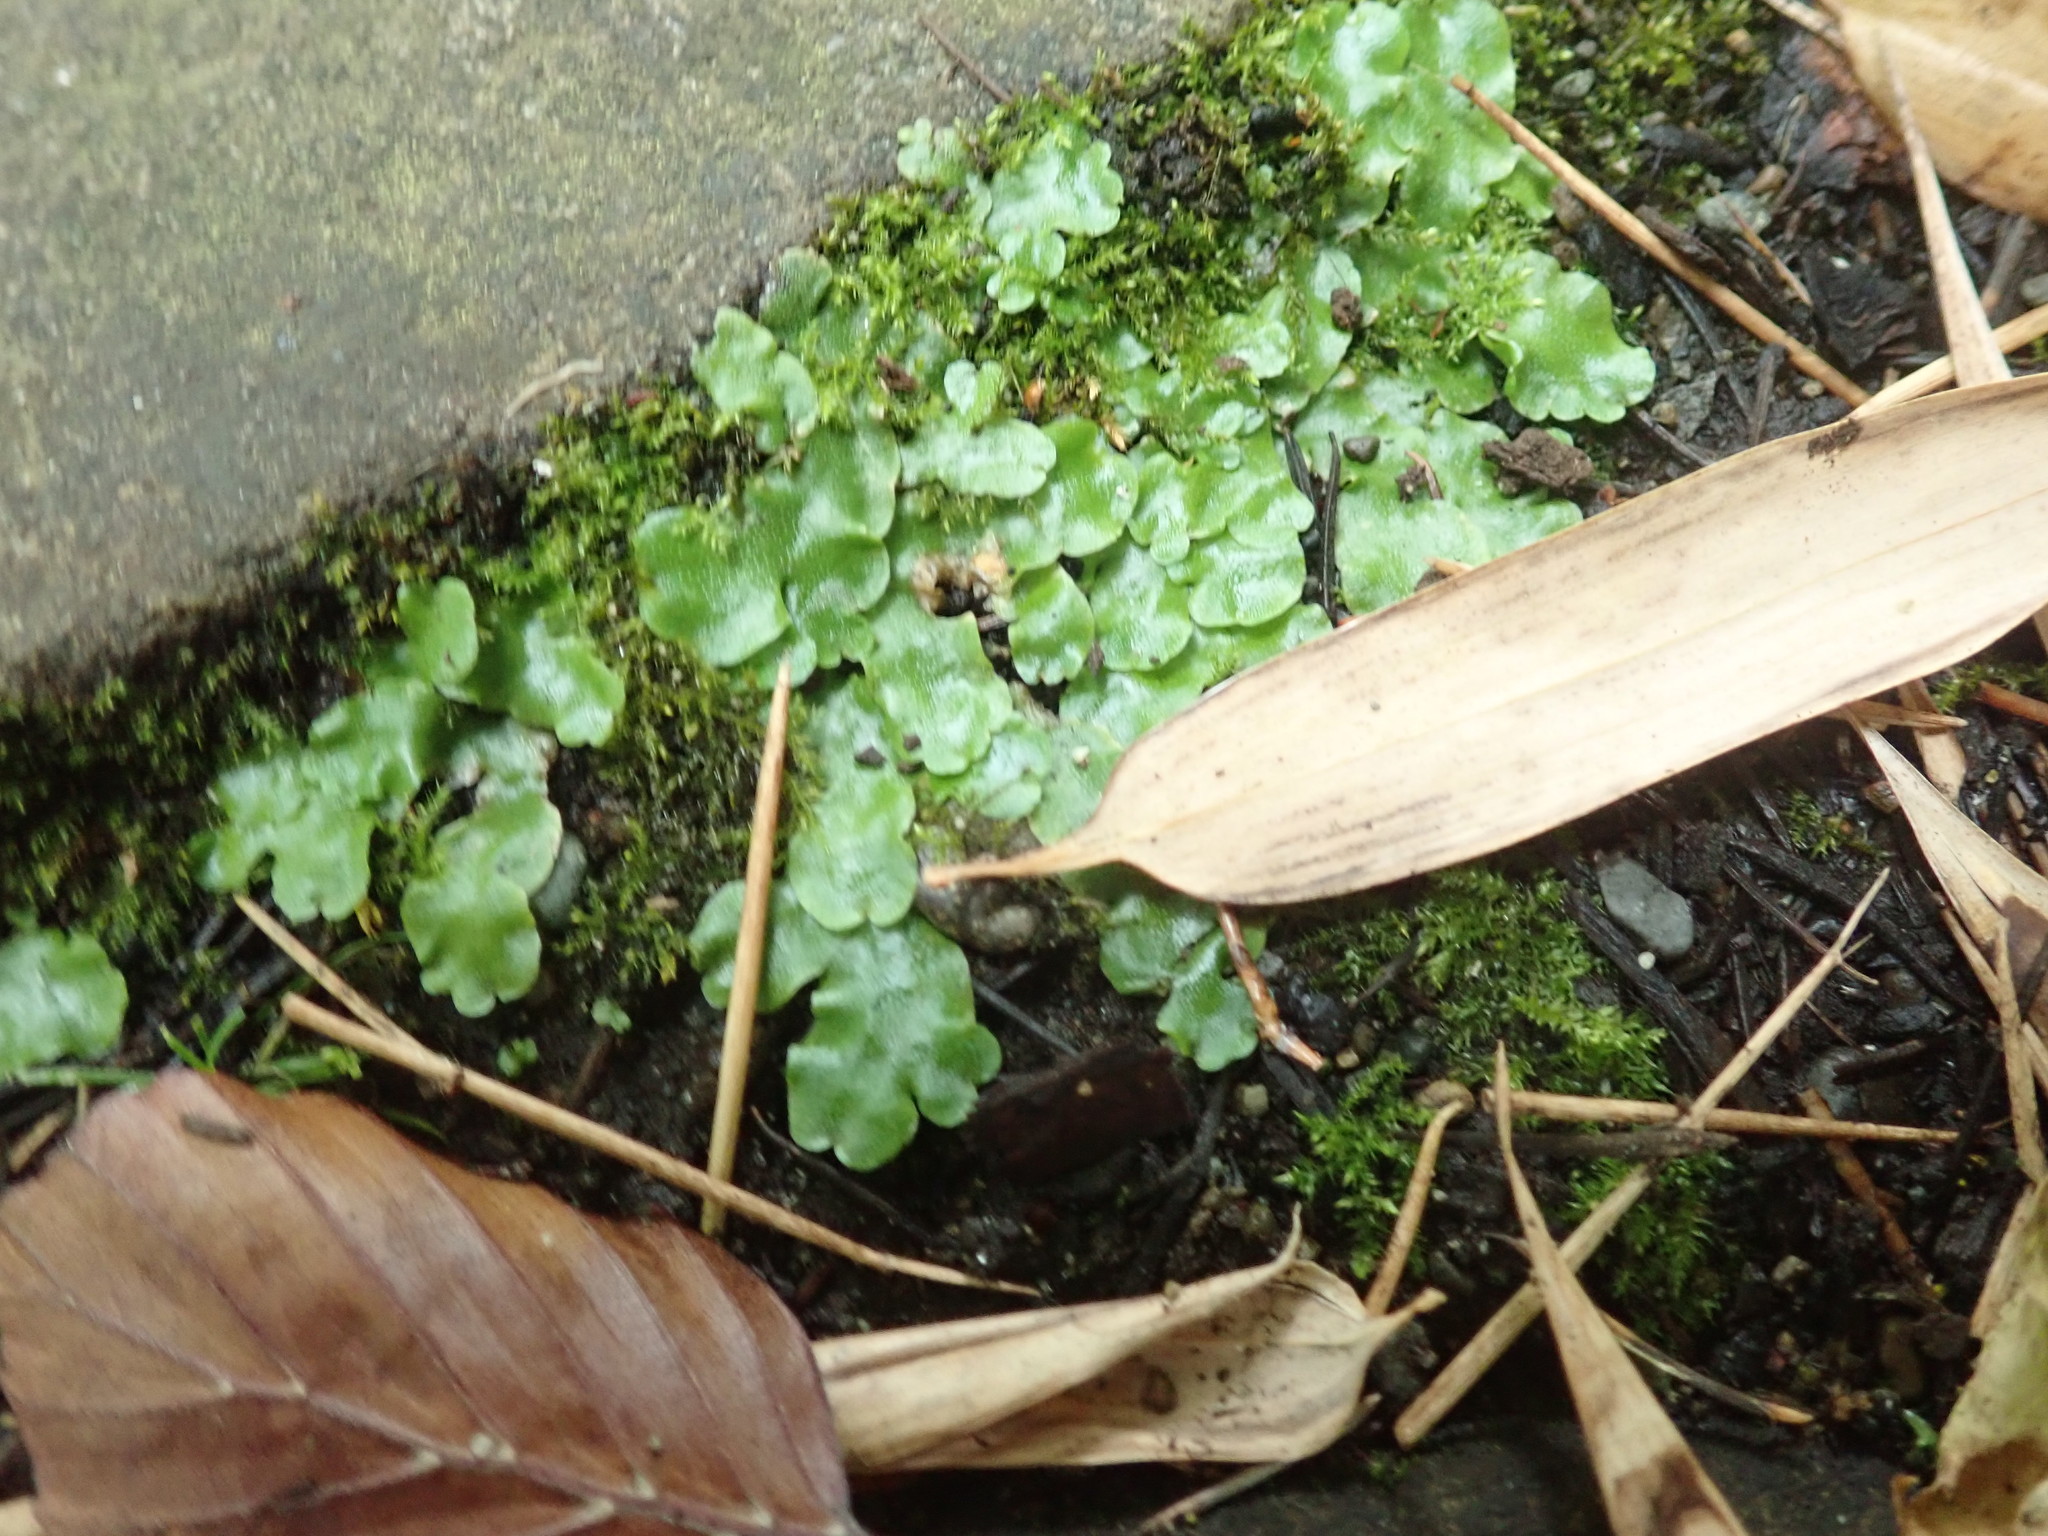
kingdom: Plantae
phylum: Marchantiophyta
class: Marchantiopsida
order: Lunulariales
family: Lunulariaceae
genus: Lunularia
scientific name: Lunularia cruciata
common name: Crescent-cup liverwort
